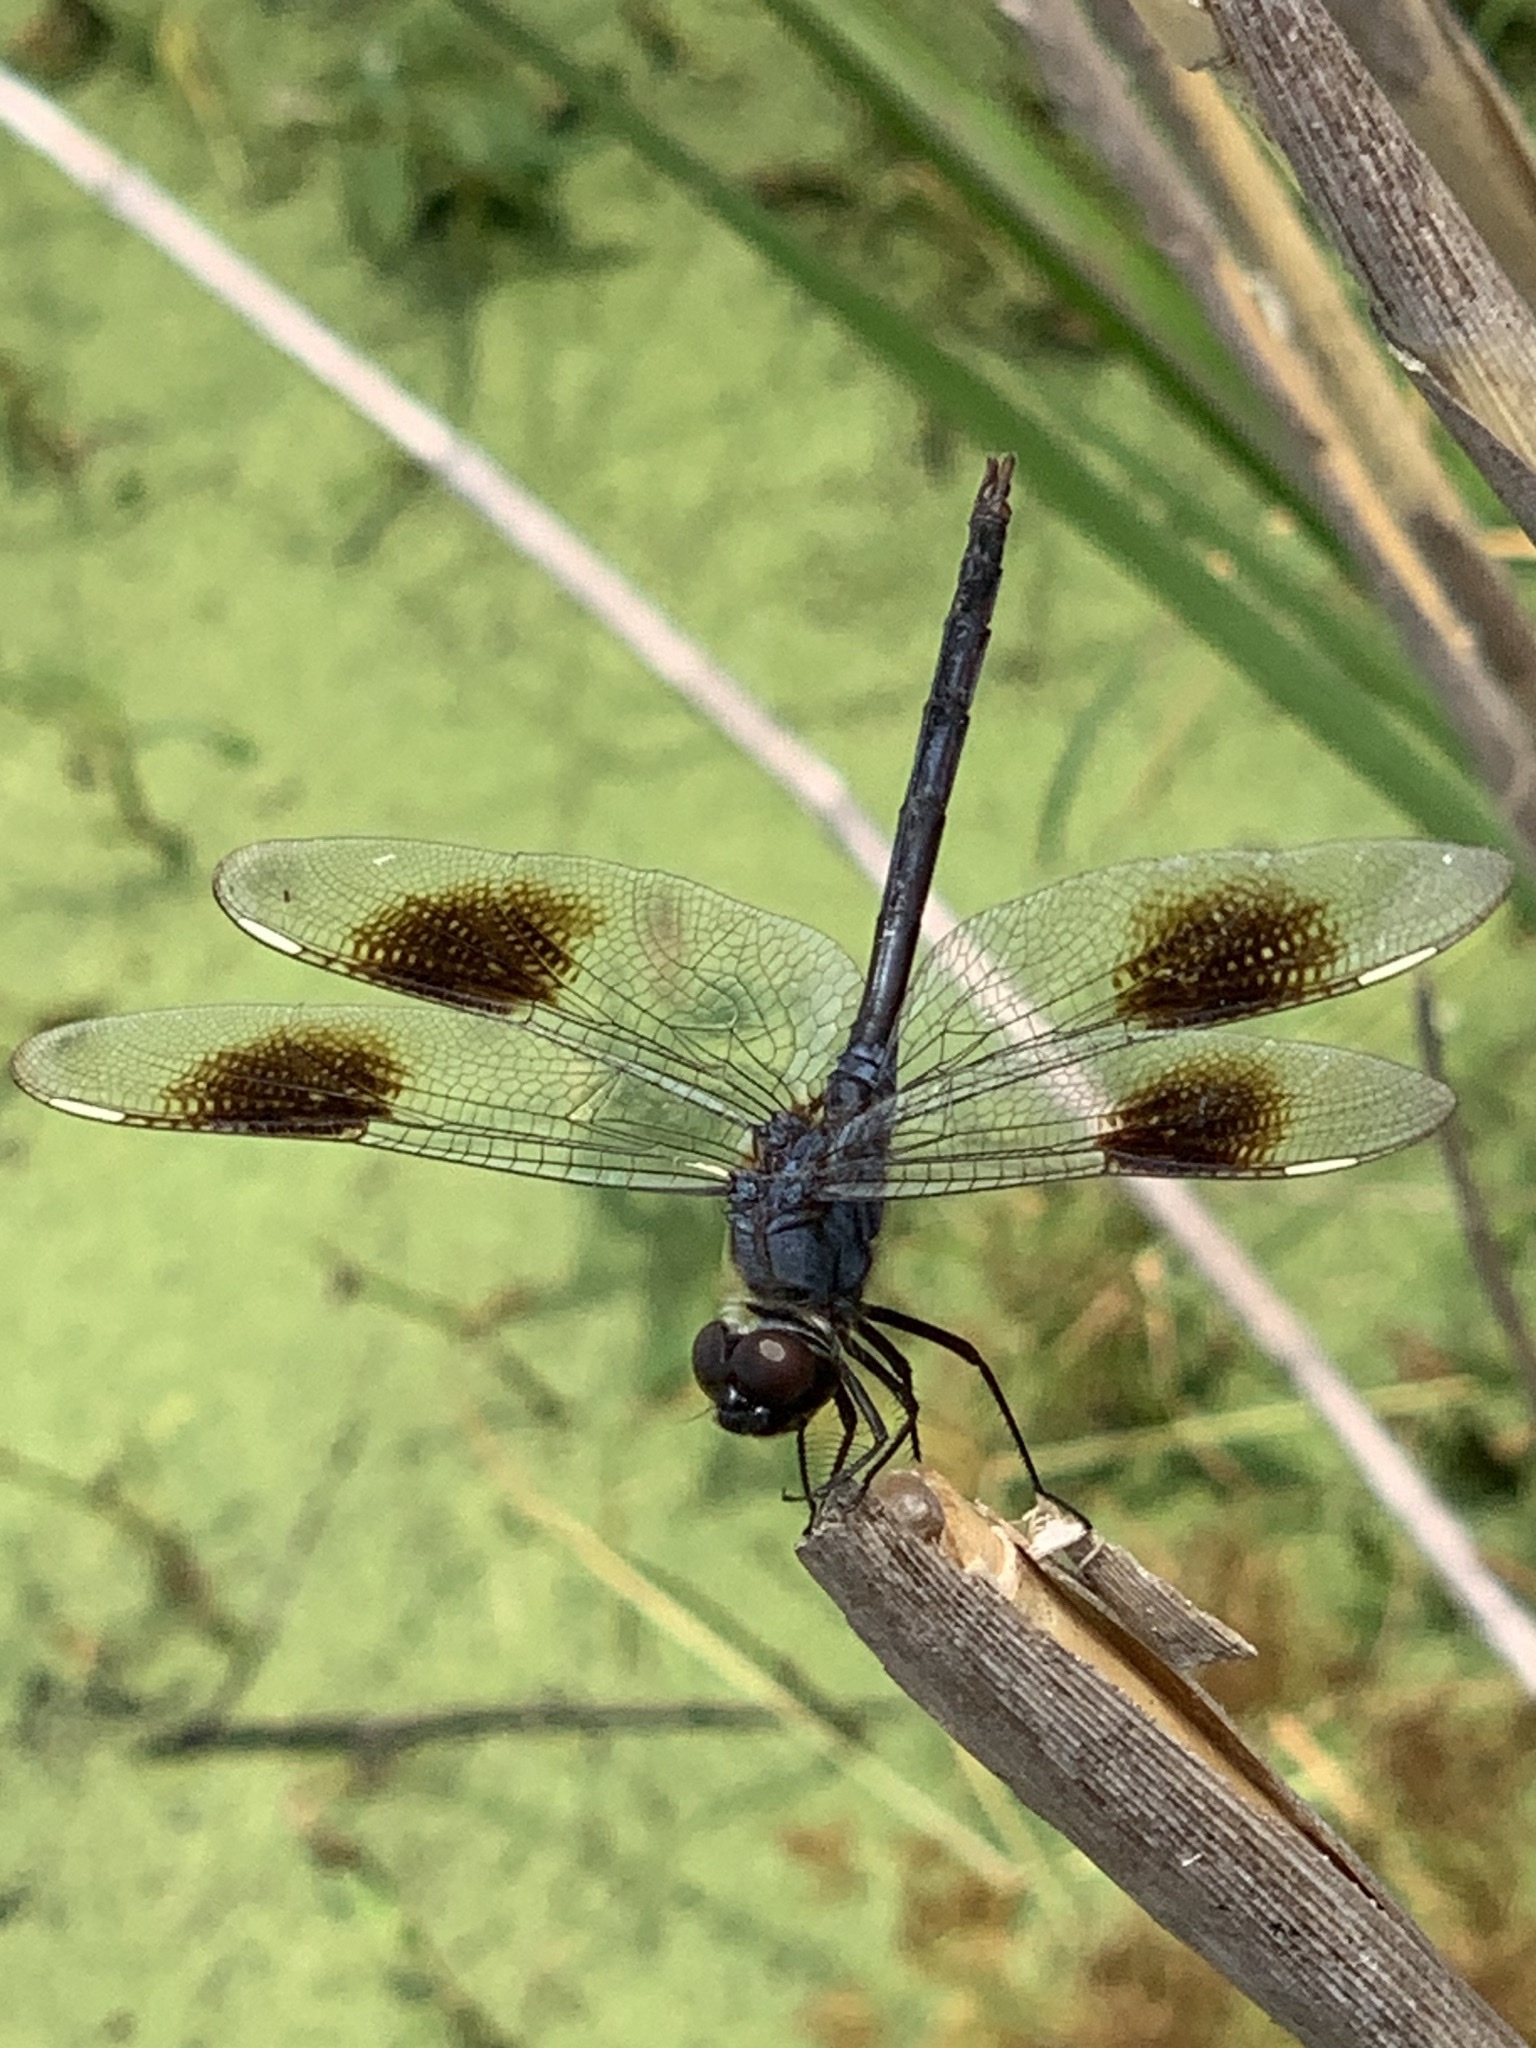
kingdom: Animalia
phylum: Arthropoda
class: Insecta
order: Odonata
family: Libellulidae
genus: Brachymesia
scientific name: Brachymesia gravida
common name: Four-spotted pennant
